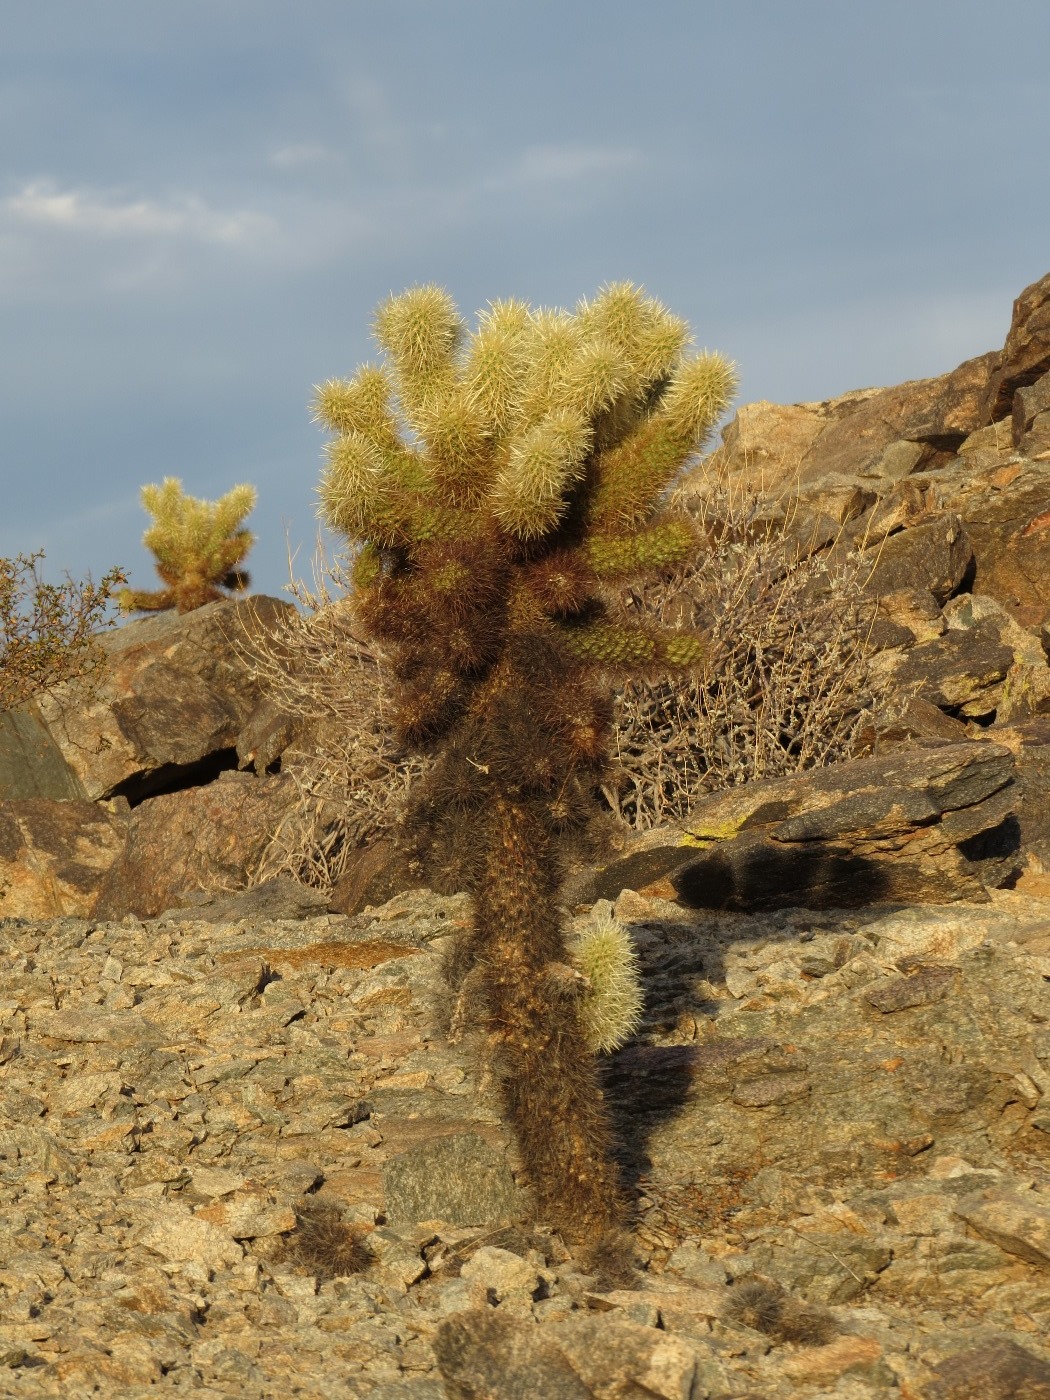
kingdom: Plantae
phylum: Tracheophyta
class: Magnoliopsida
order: Caryophyllales
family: Cactaceae
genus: Cylindropuntia
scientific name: Cylindropuntia fosbergii
